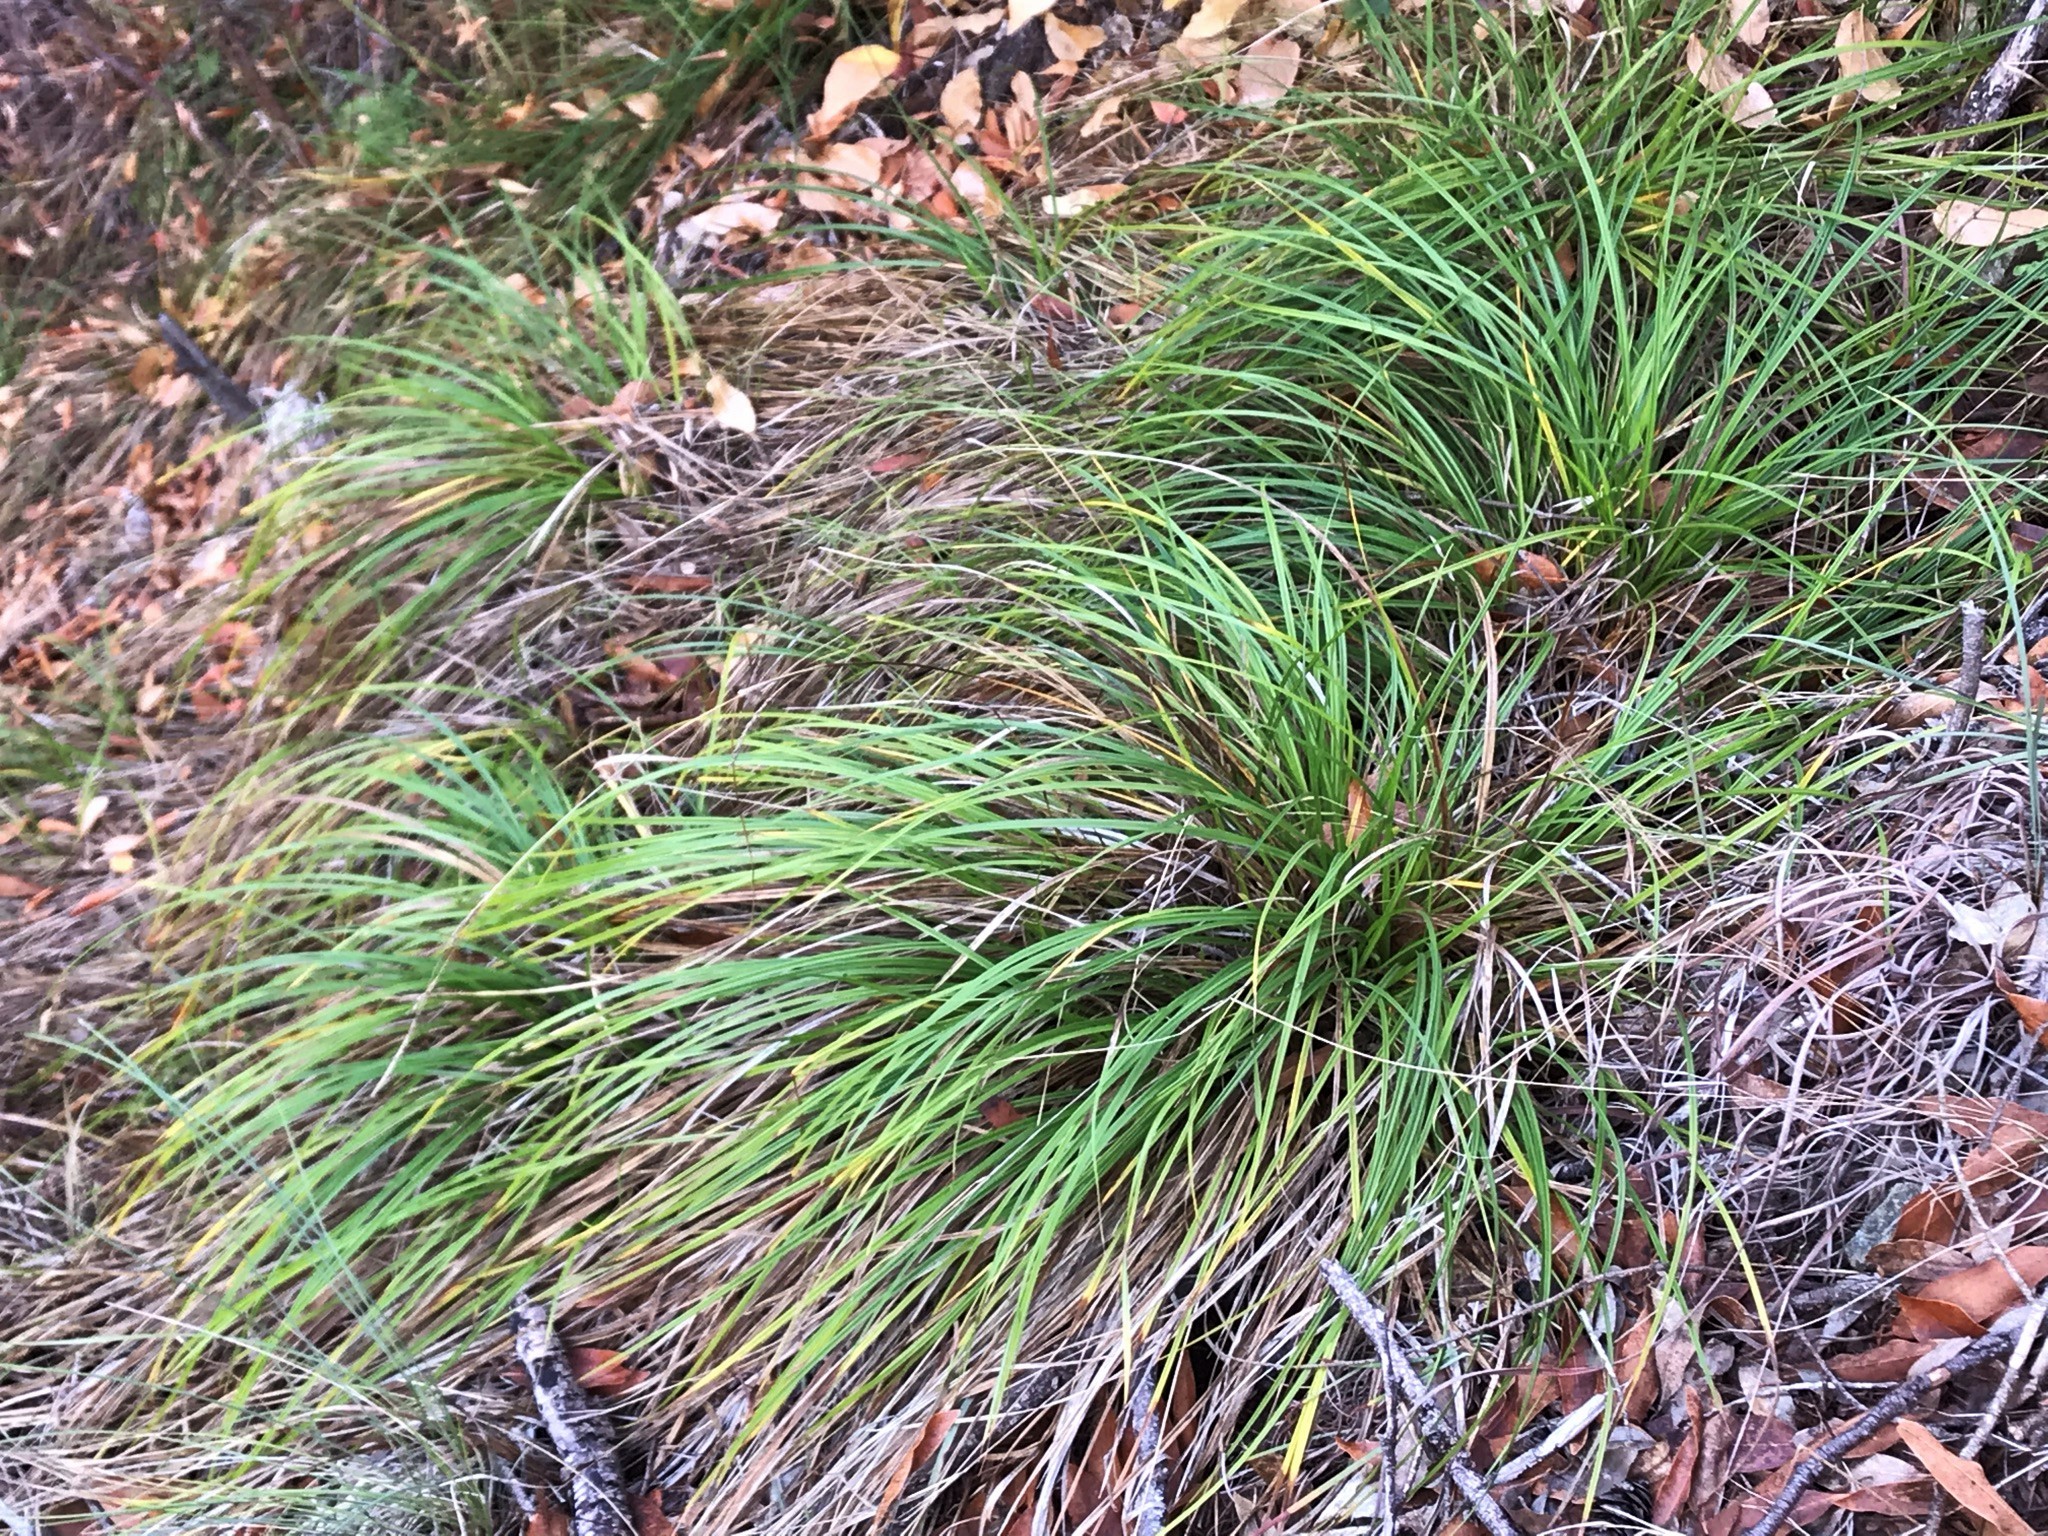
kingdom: Plantae
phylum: Tracheophyta
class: Liliopsida
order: Poales
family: Cyperaceae
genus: Carex
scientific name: Carex mendocinensis
